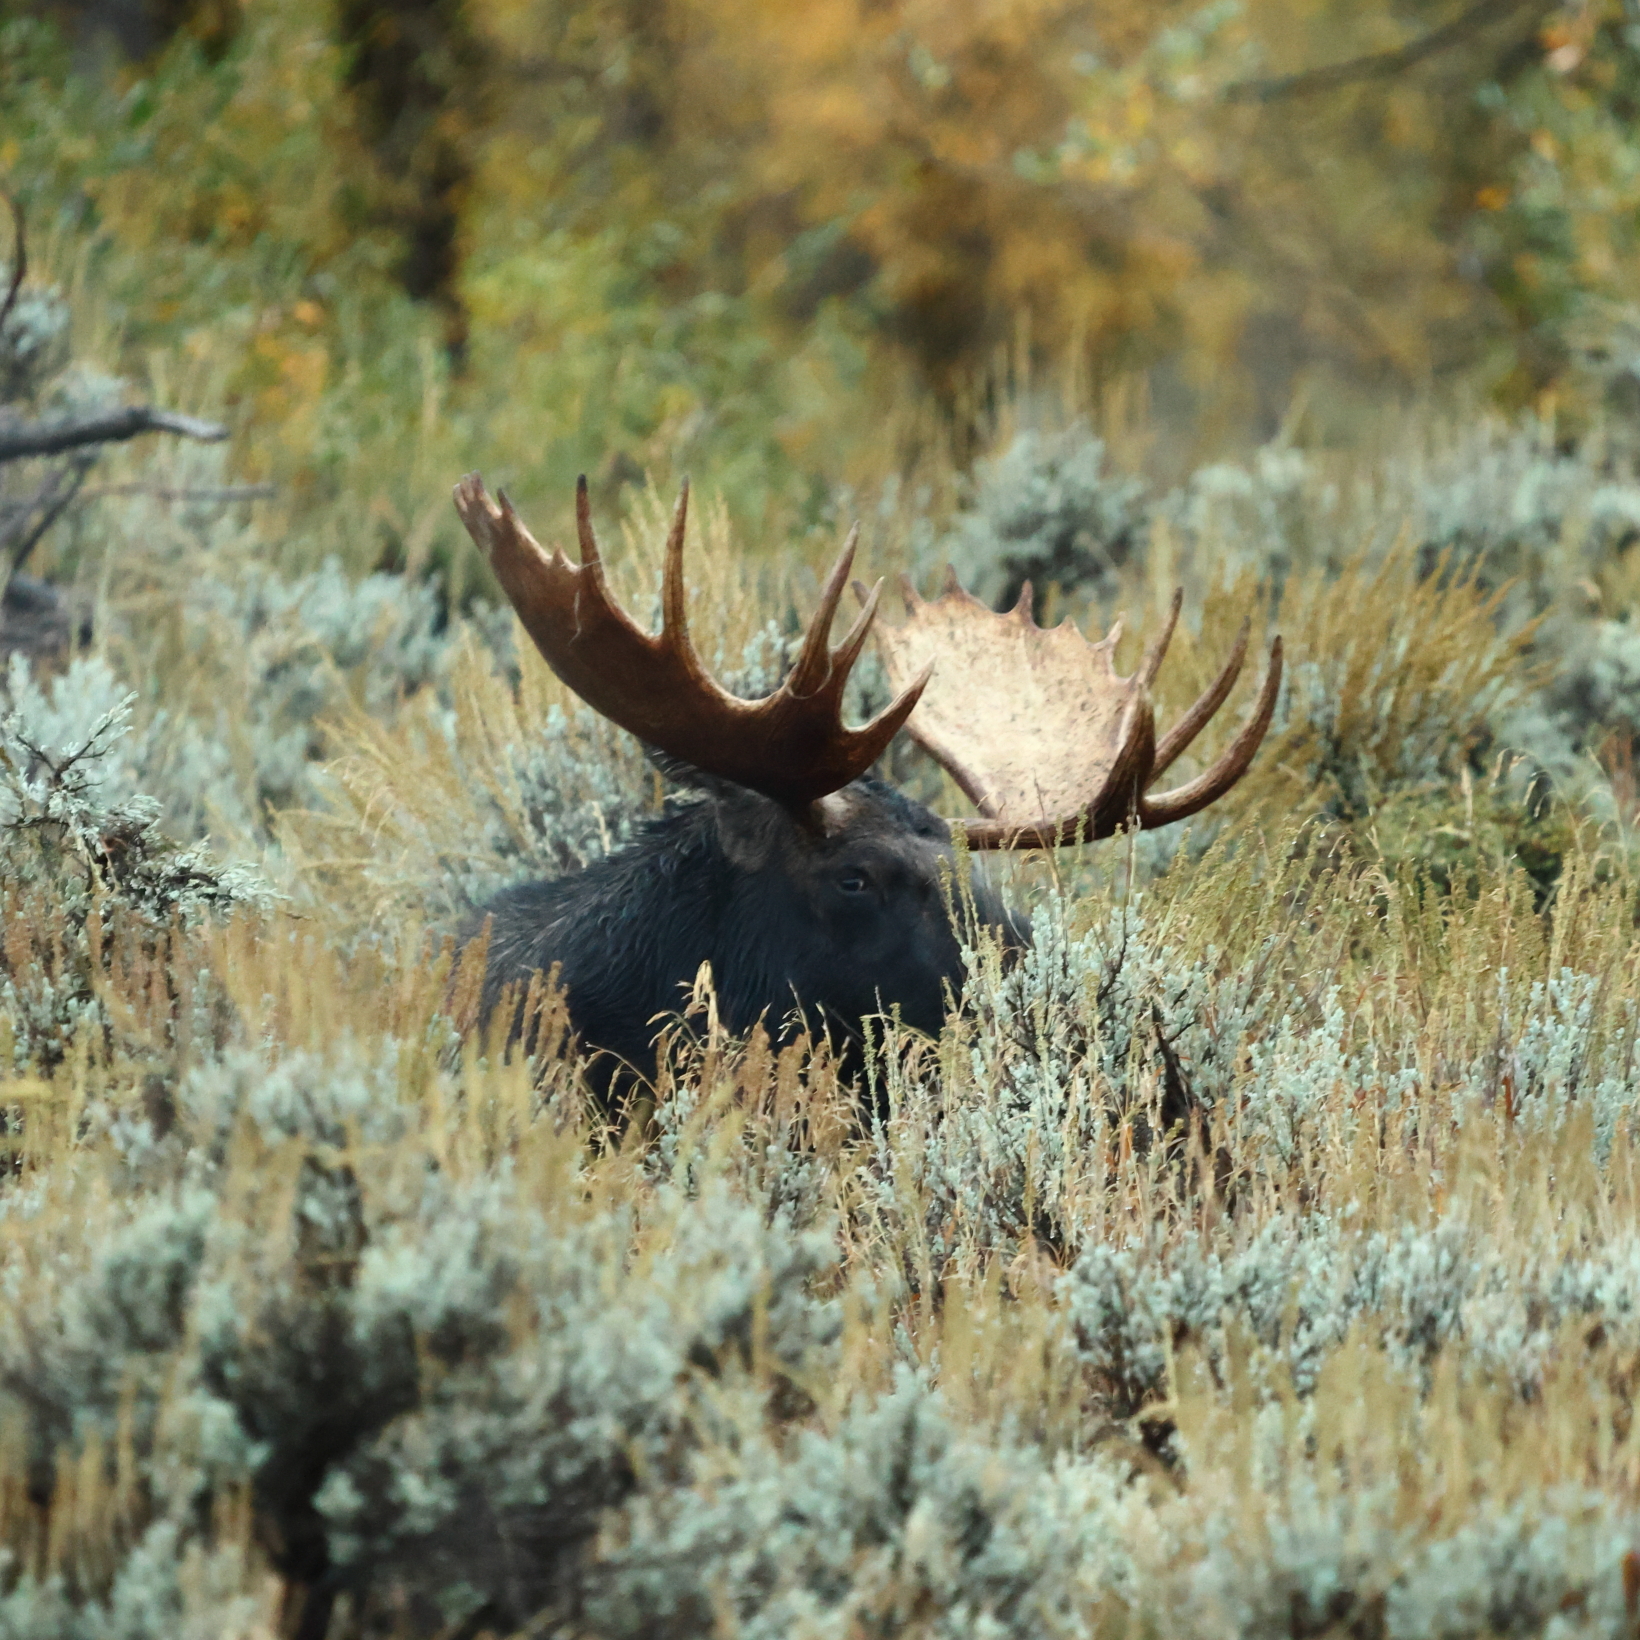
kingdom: Animalia
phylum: Chordata
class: Mammalia
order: Artiodactyla
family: Cervidae
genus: Alces
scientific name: Alces americanus
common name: Moose
